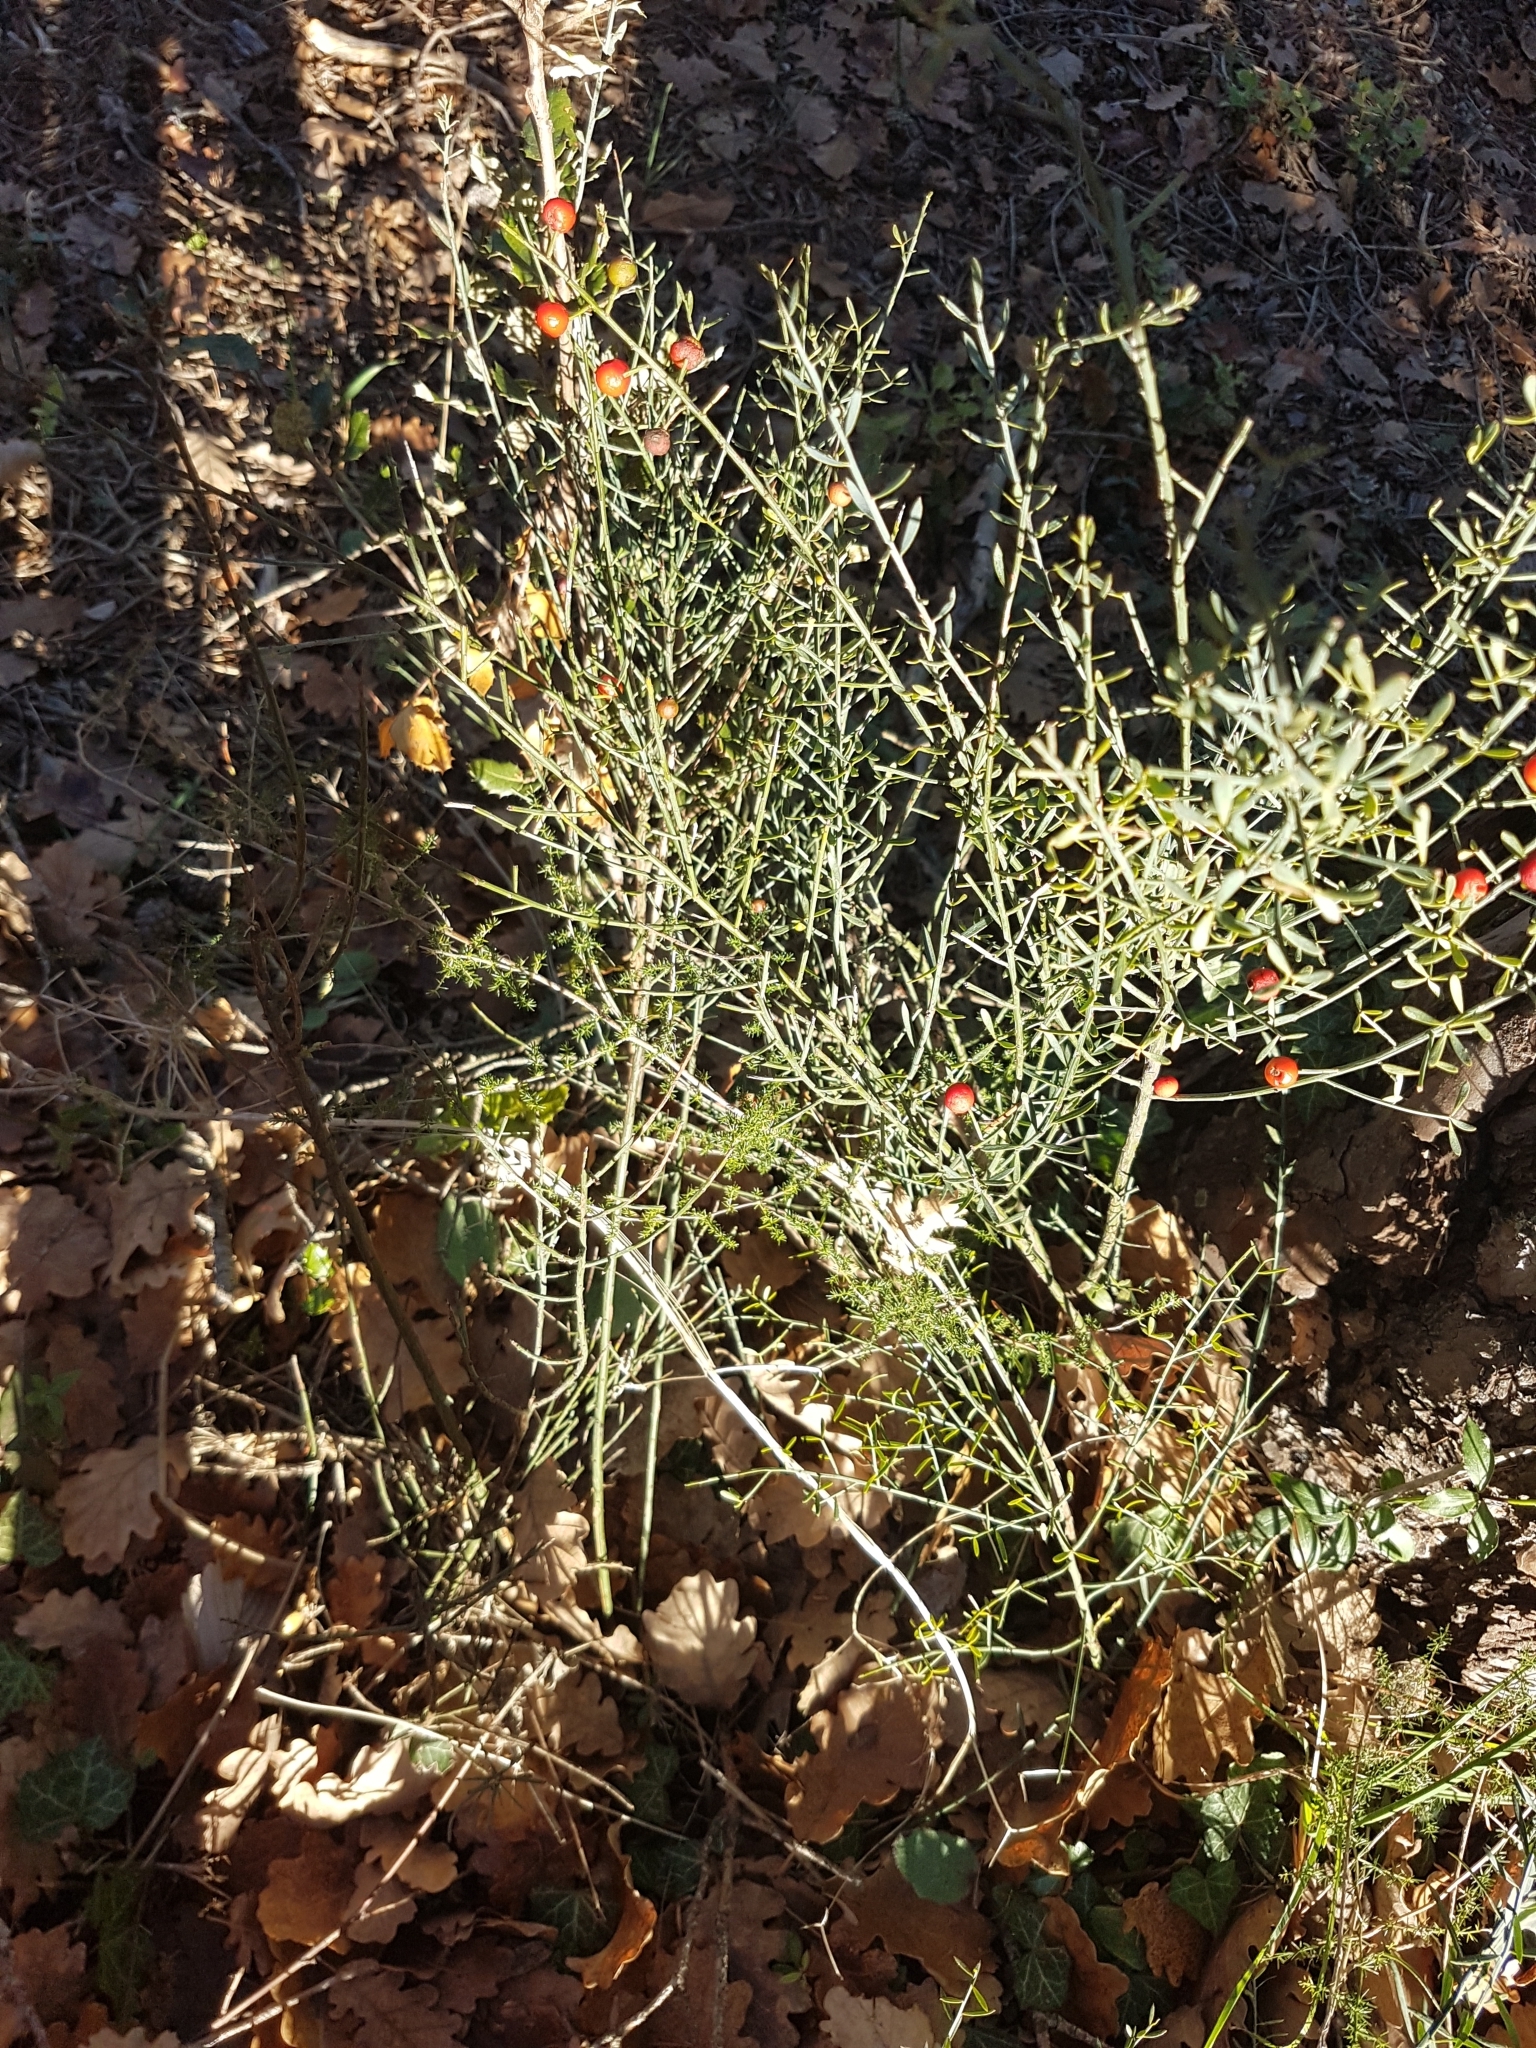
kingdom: Plantae
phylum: Tracheophyta
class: Magnoliopsida
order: Santalales
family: Santalaceae
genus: Osyris
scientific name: Osyris alba
